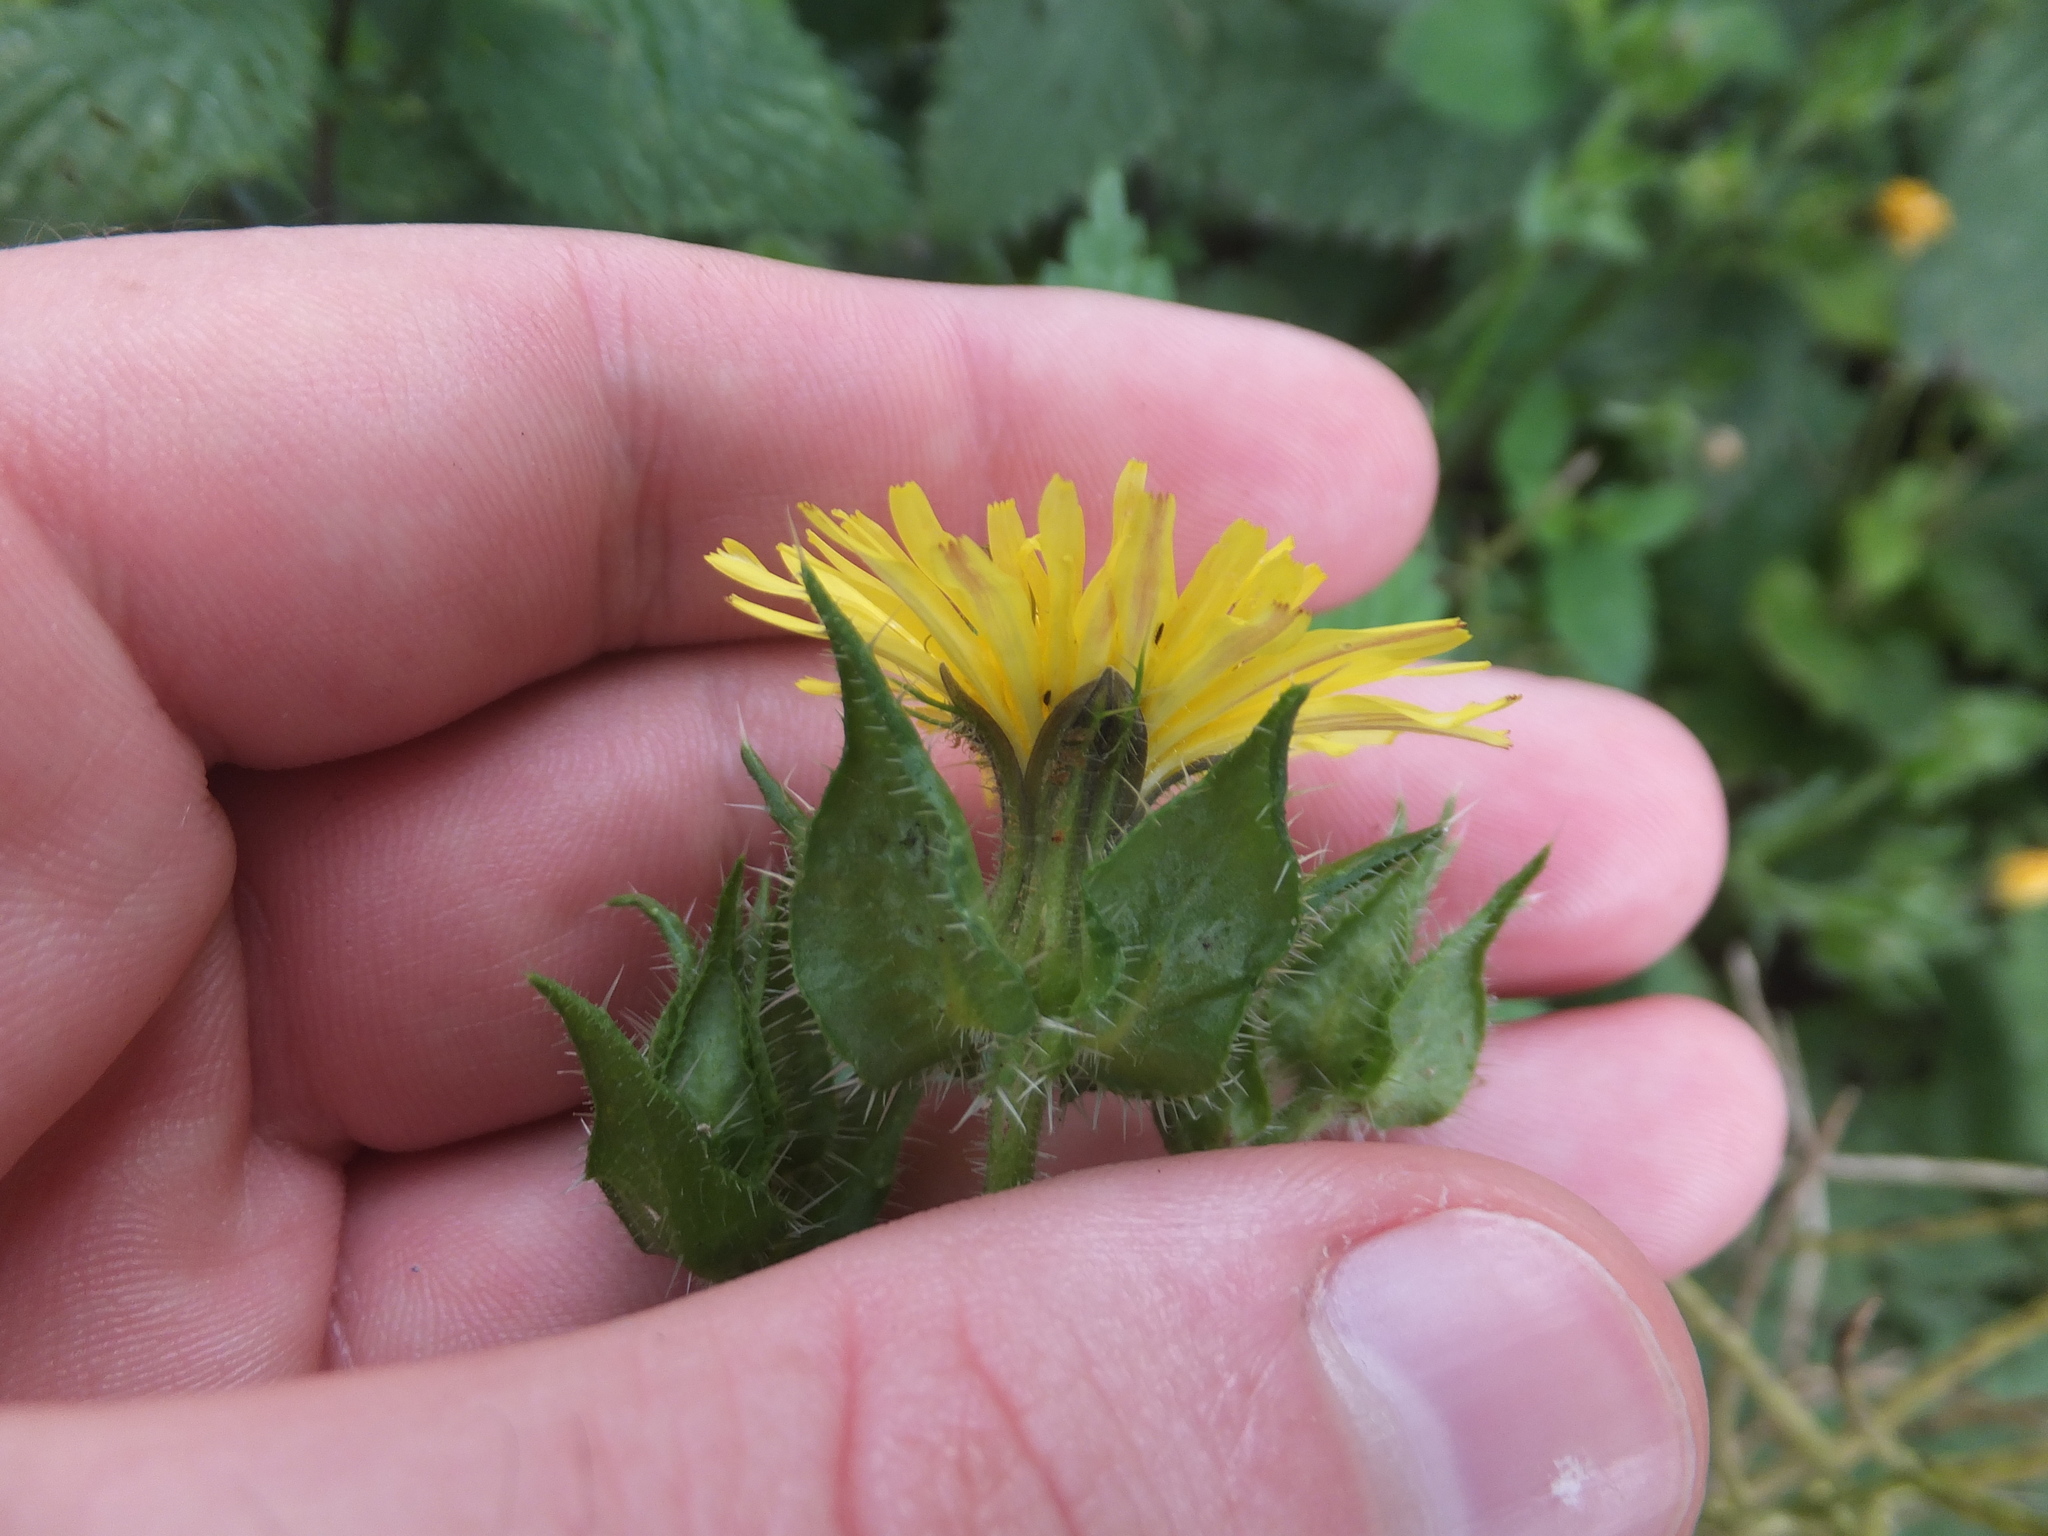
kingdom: Plantae
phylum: Tracheophyta
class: Magnoliopsida
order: Asterales
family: Asteraceae
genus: Helminthotheca
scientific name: Helminthotheca echioides
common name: Ox-tongue
